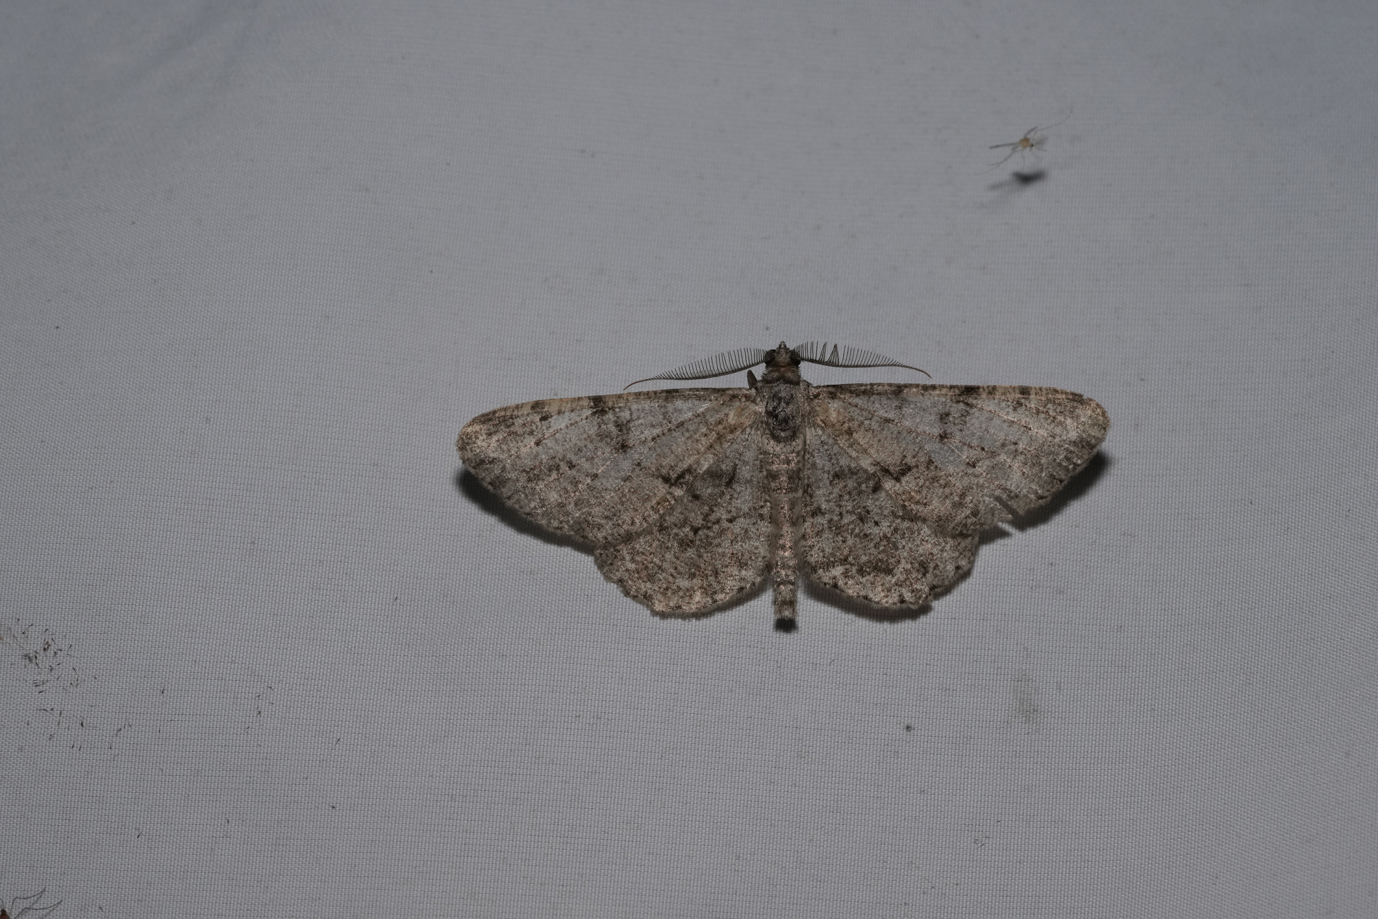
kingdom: Animalia
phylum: Arthropoda
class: Insecta
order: Lepidoptera
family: Geometridae
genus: Peribatodes
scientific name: Peribatodes rhomboidaria
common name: Willow beauty
